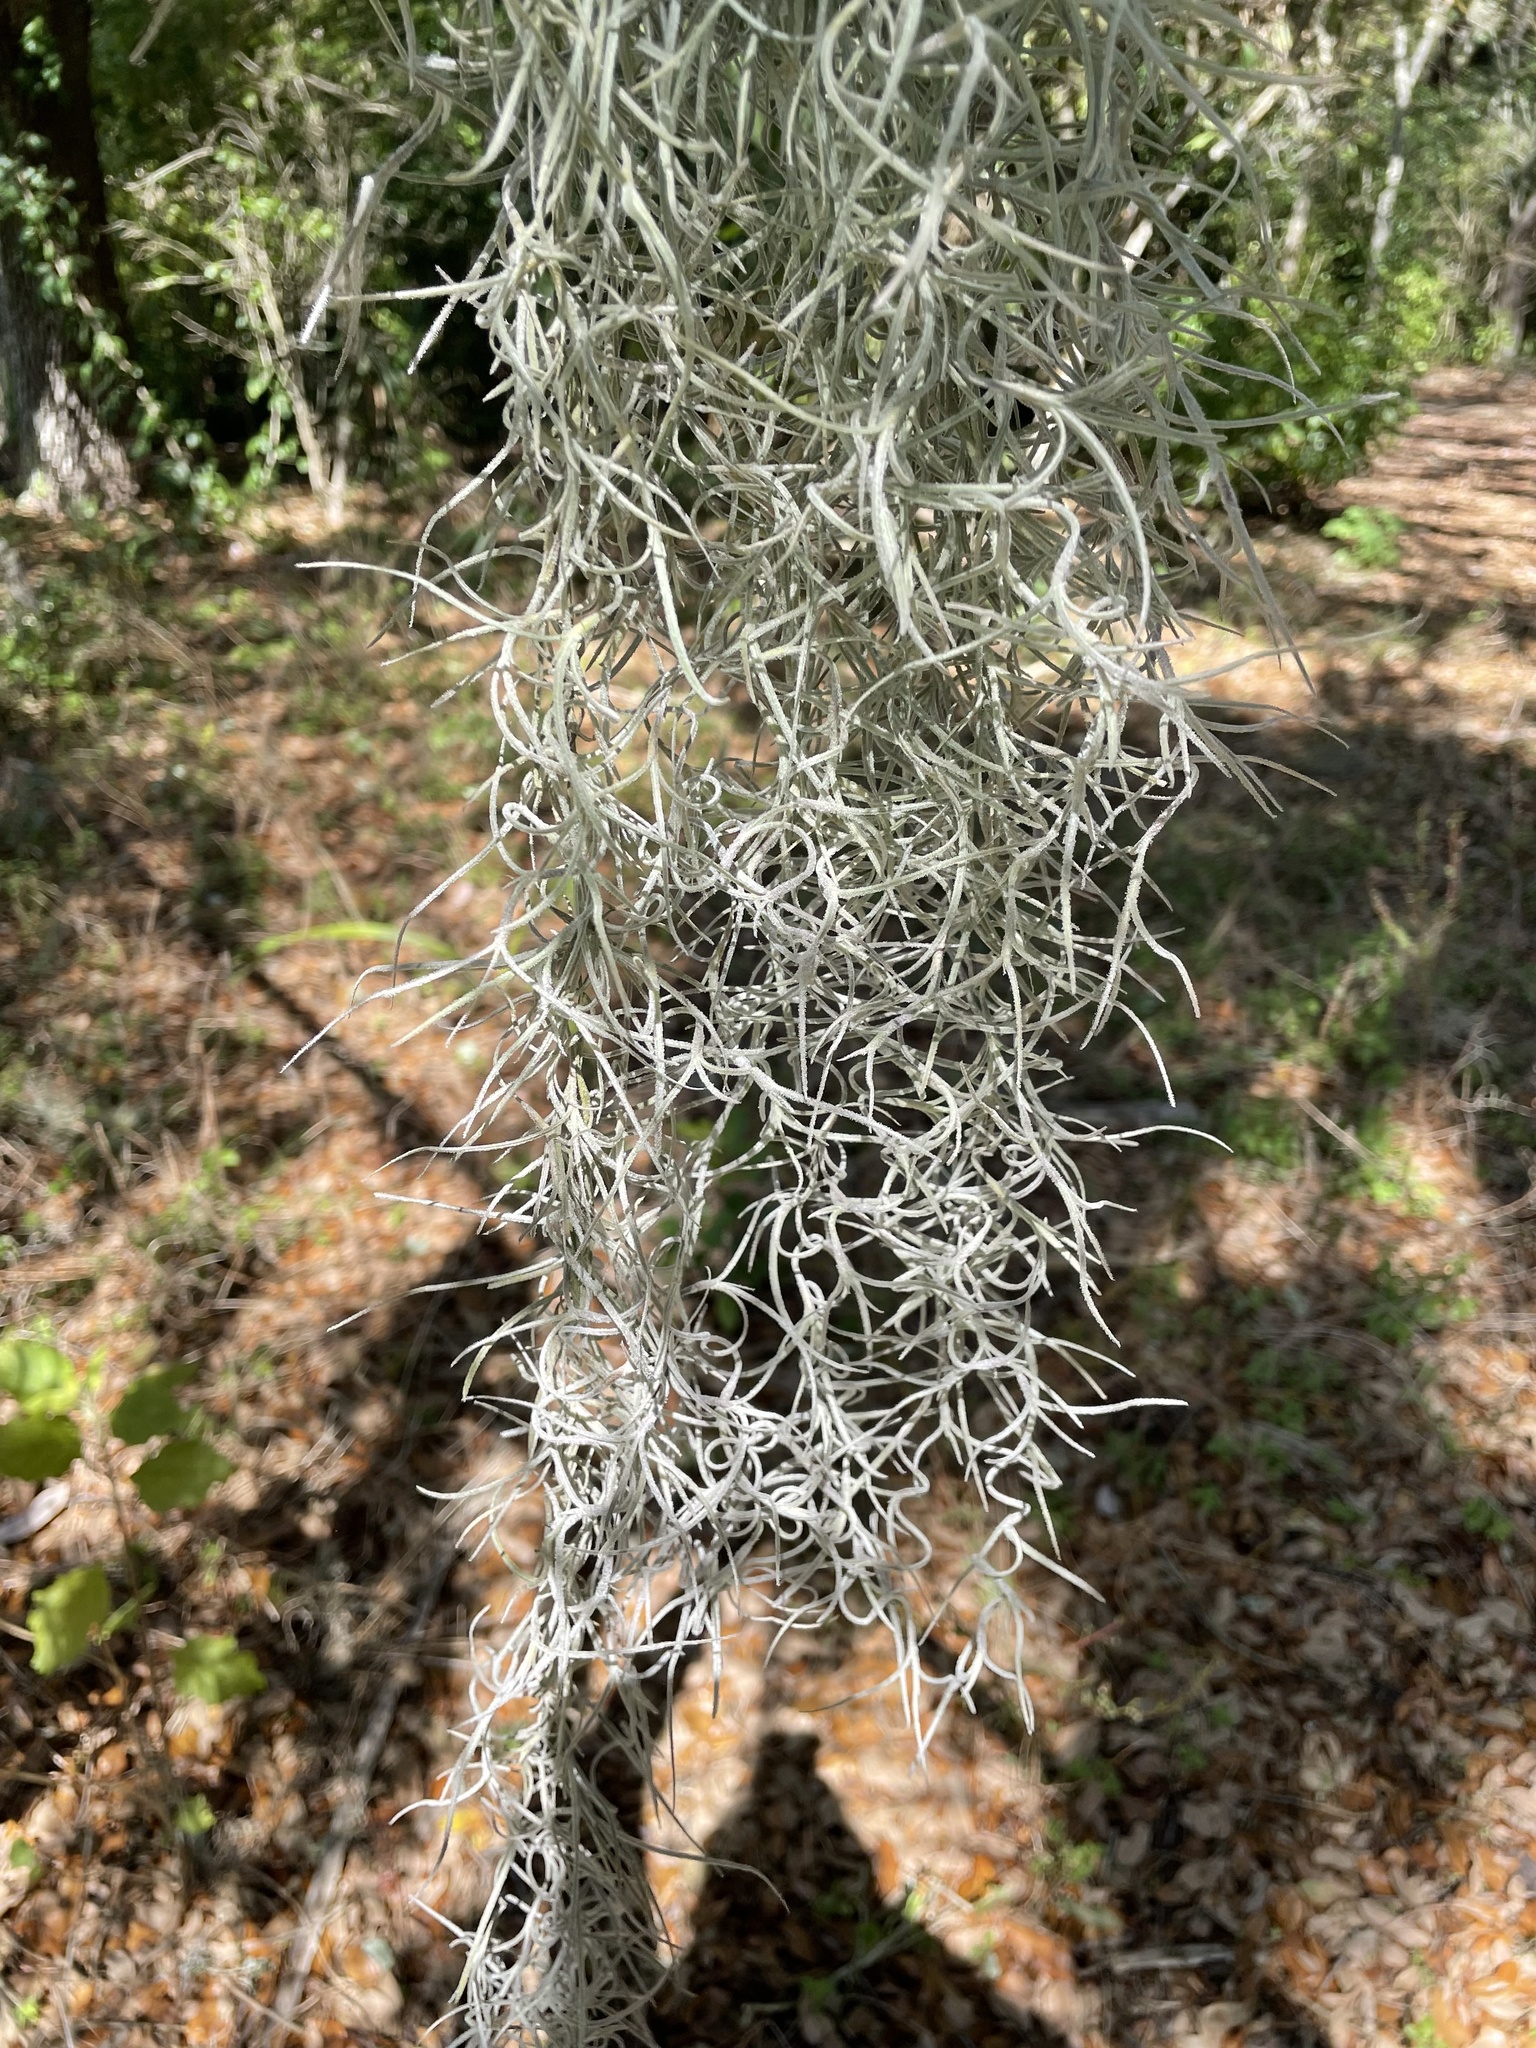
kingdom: Plantae
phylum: Tracheophyta
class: Liliopsida
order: Poales
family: Bromeliaceae
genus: Tillandsia
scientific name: Tillandsia usneoides
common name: Spanish moss
